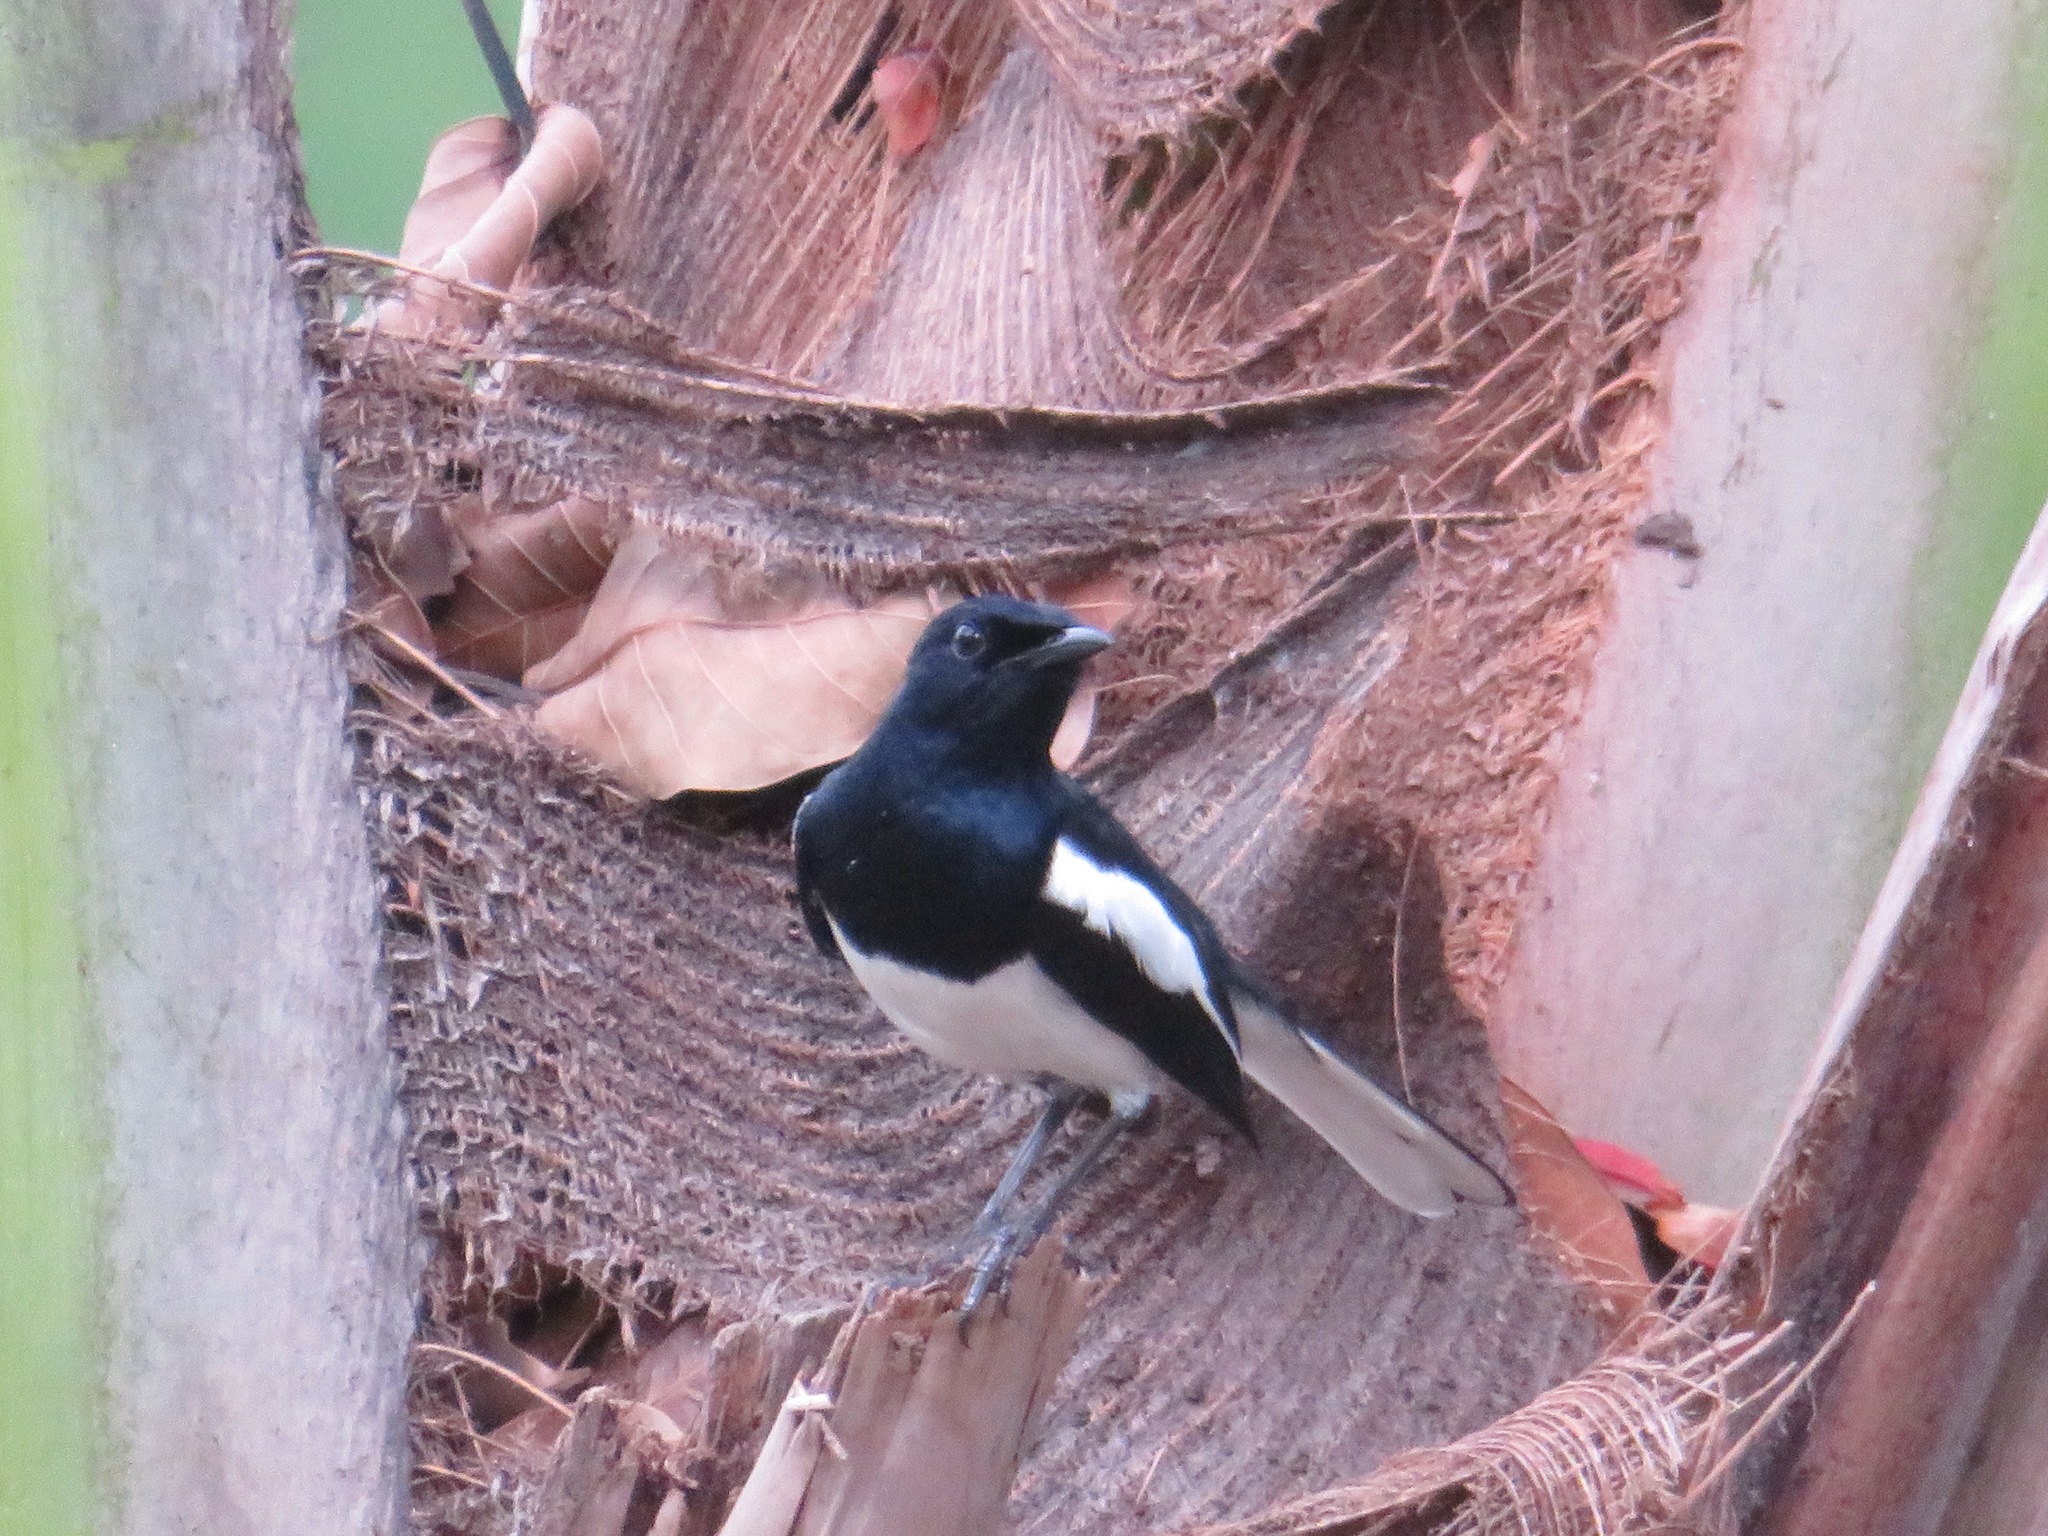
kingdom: Animalia
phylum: Chordata
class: Aves
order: Passeriformes
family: Muscicapidae
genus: Copsychus
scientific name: Copsychus saularis
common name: Oriental magpie-robin
